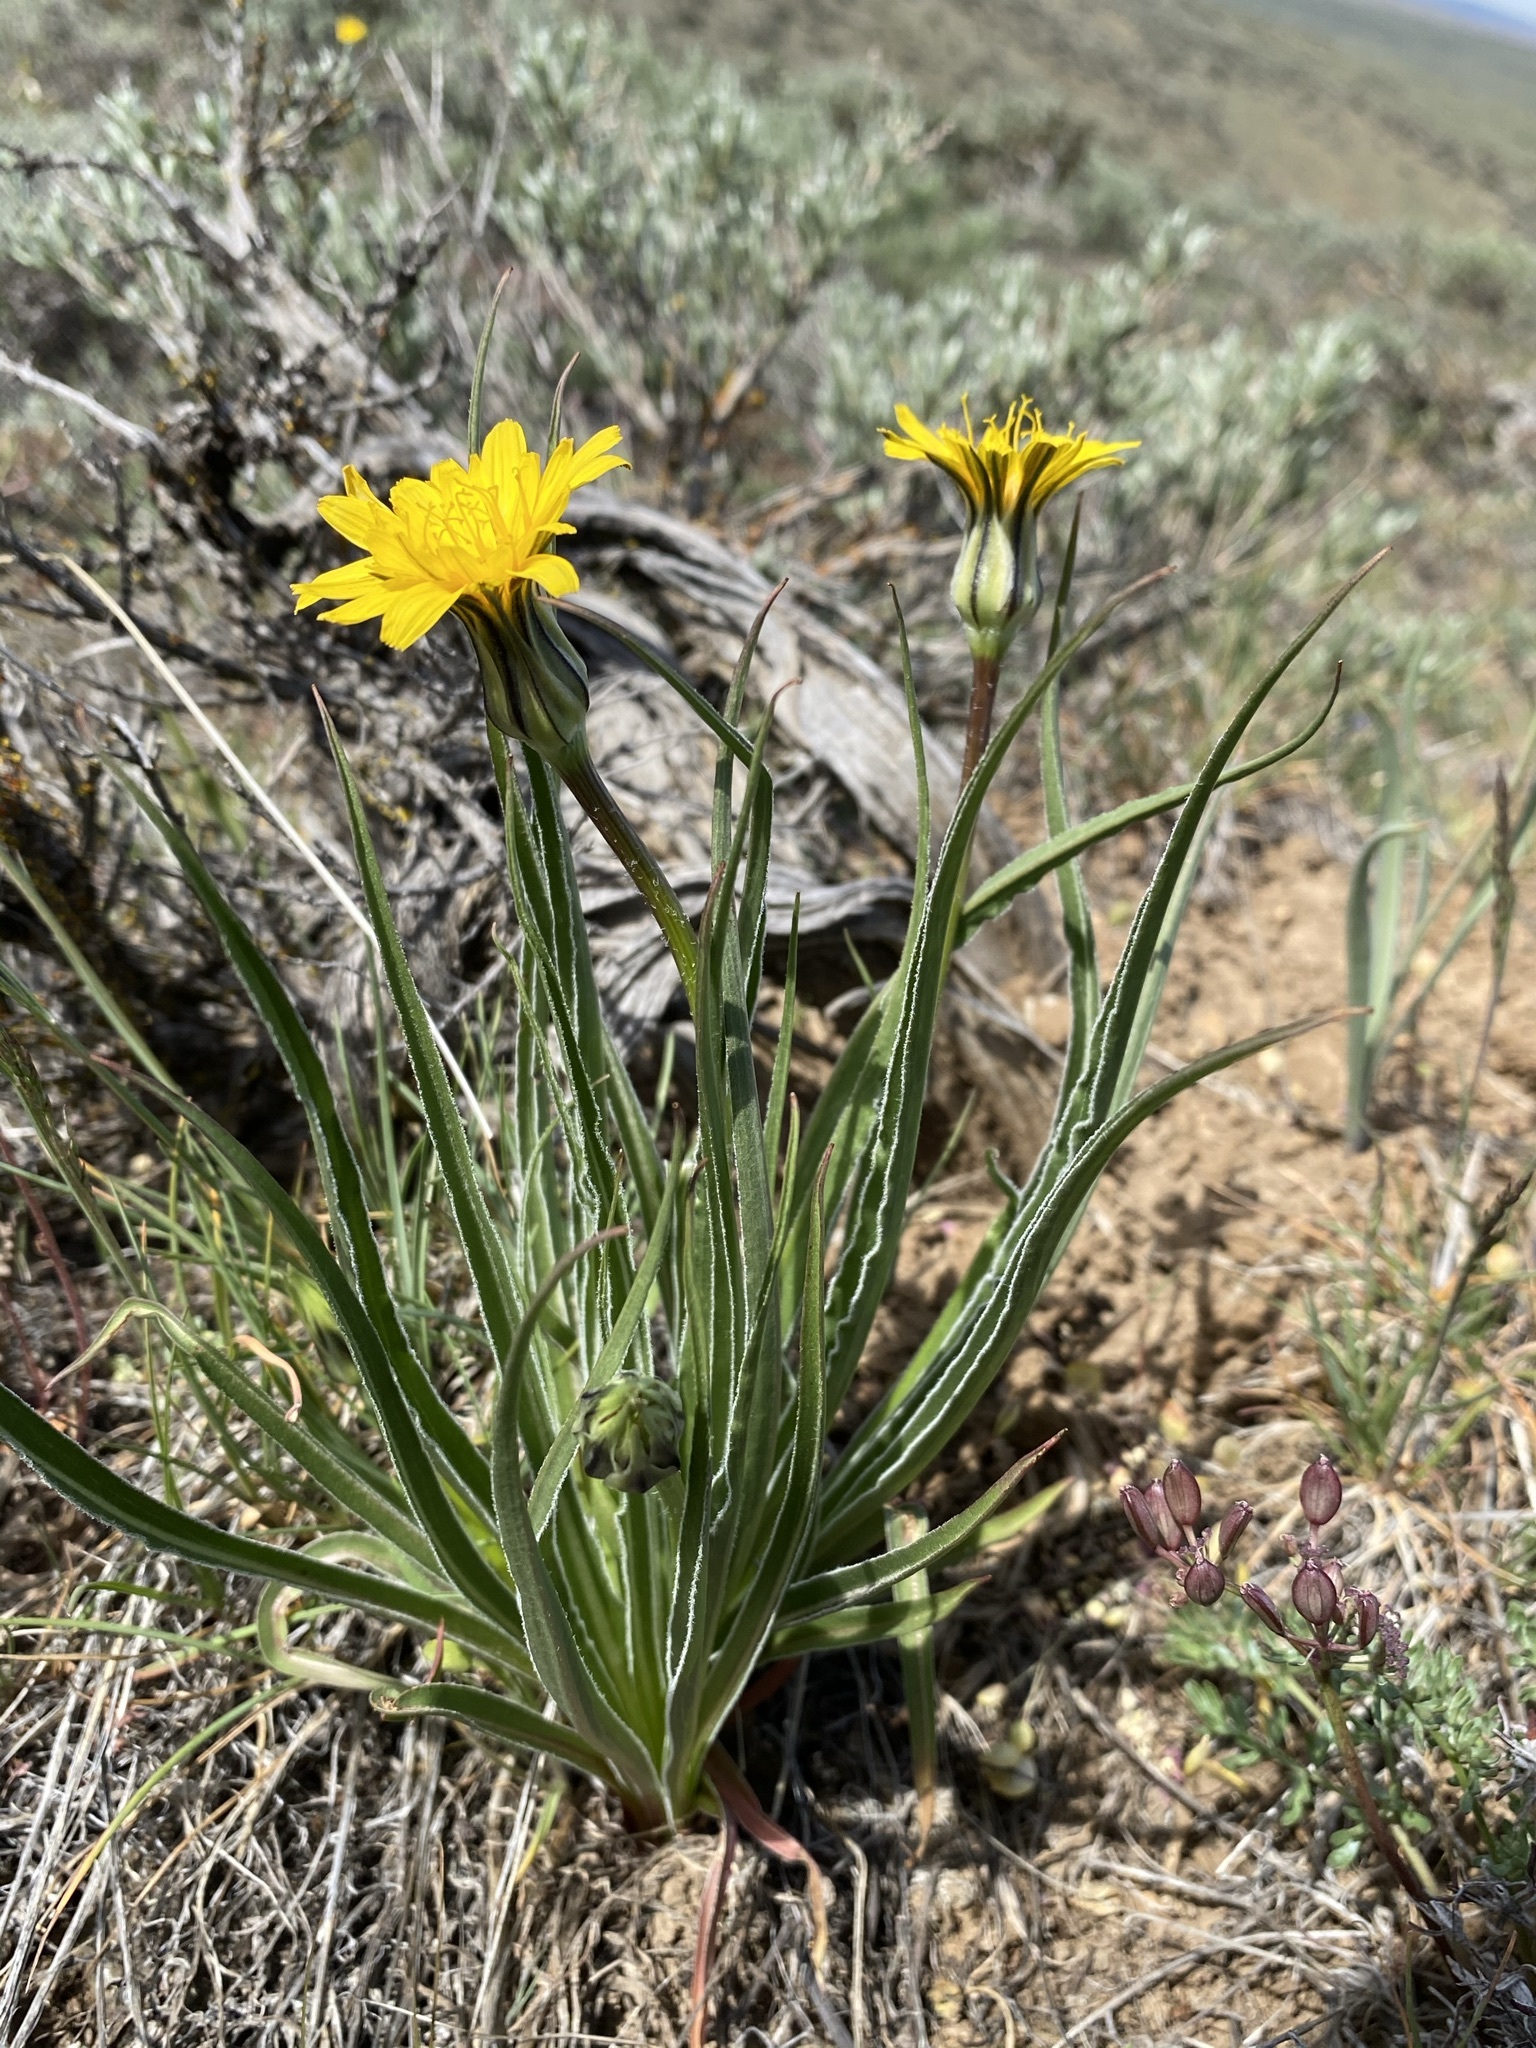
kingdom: Plantae
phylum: Tracheophyta
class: Magnoliopsida
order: Asterales
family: Asteraceae
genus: Microseris
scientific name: Microseris troximoides
